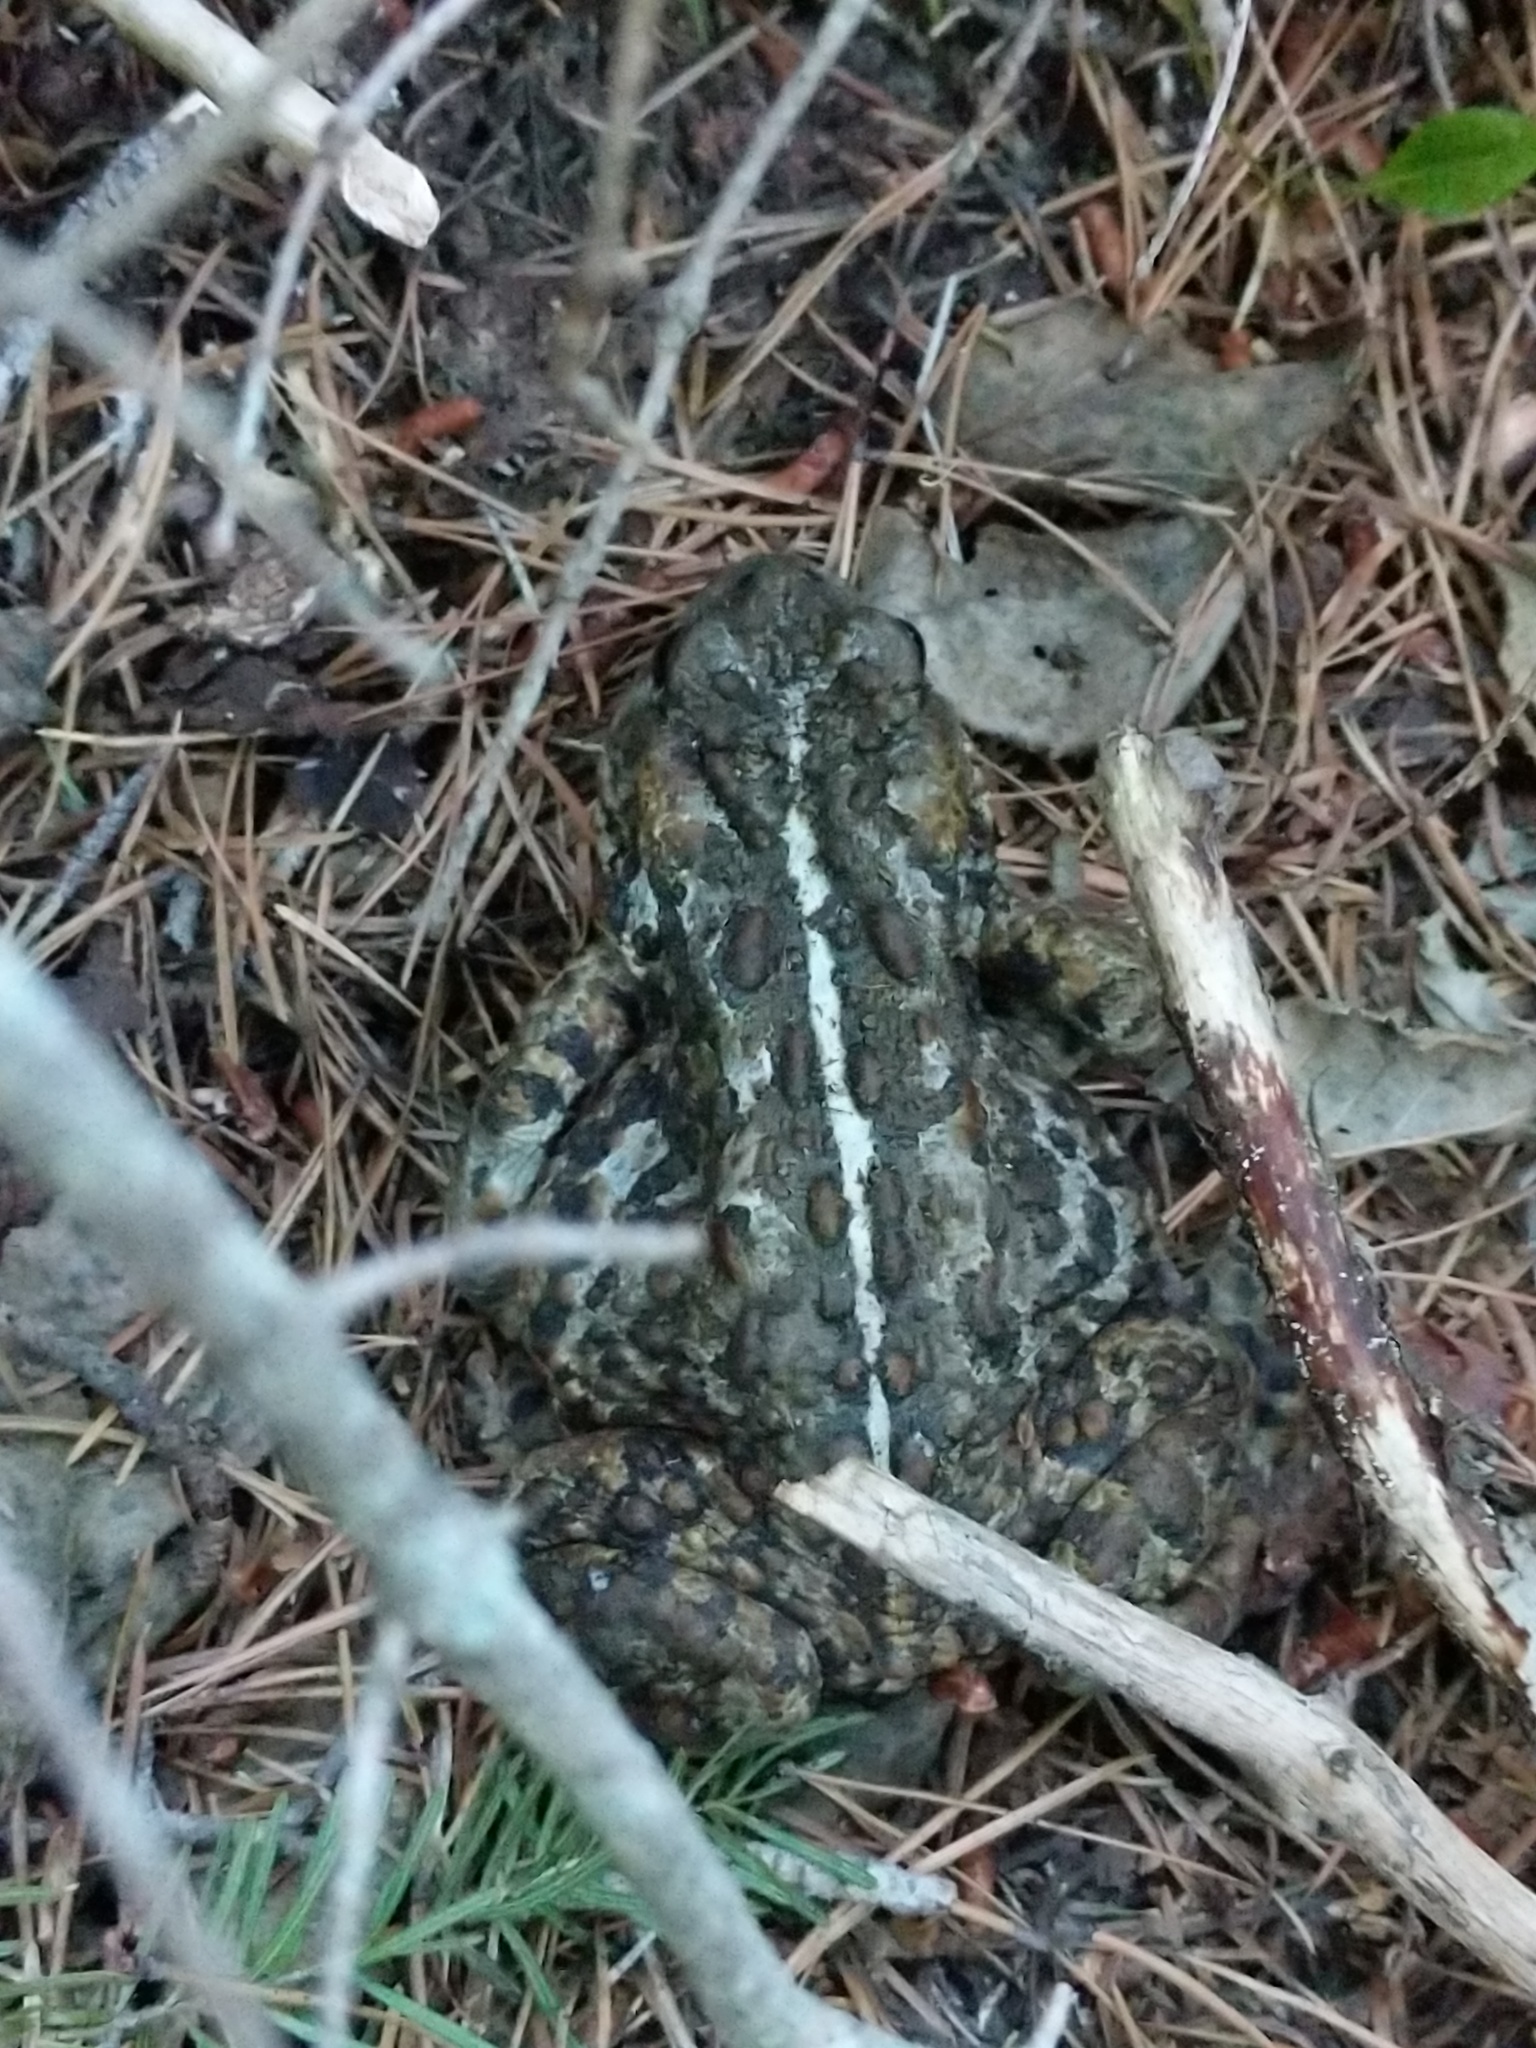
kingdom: Animalia
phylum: Chordata
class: Amphibia
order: Anura
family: Bufonidae
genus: Anaxyrus
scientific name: Anaxyrus boreas
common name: Western toad
